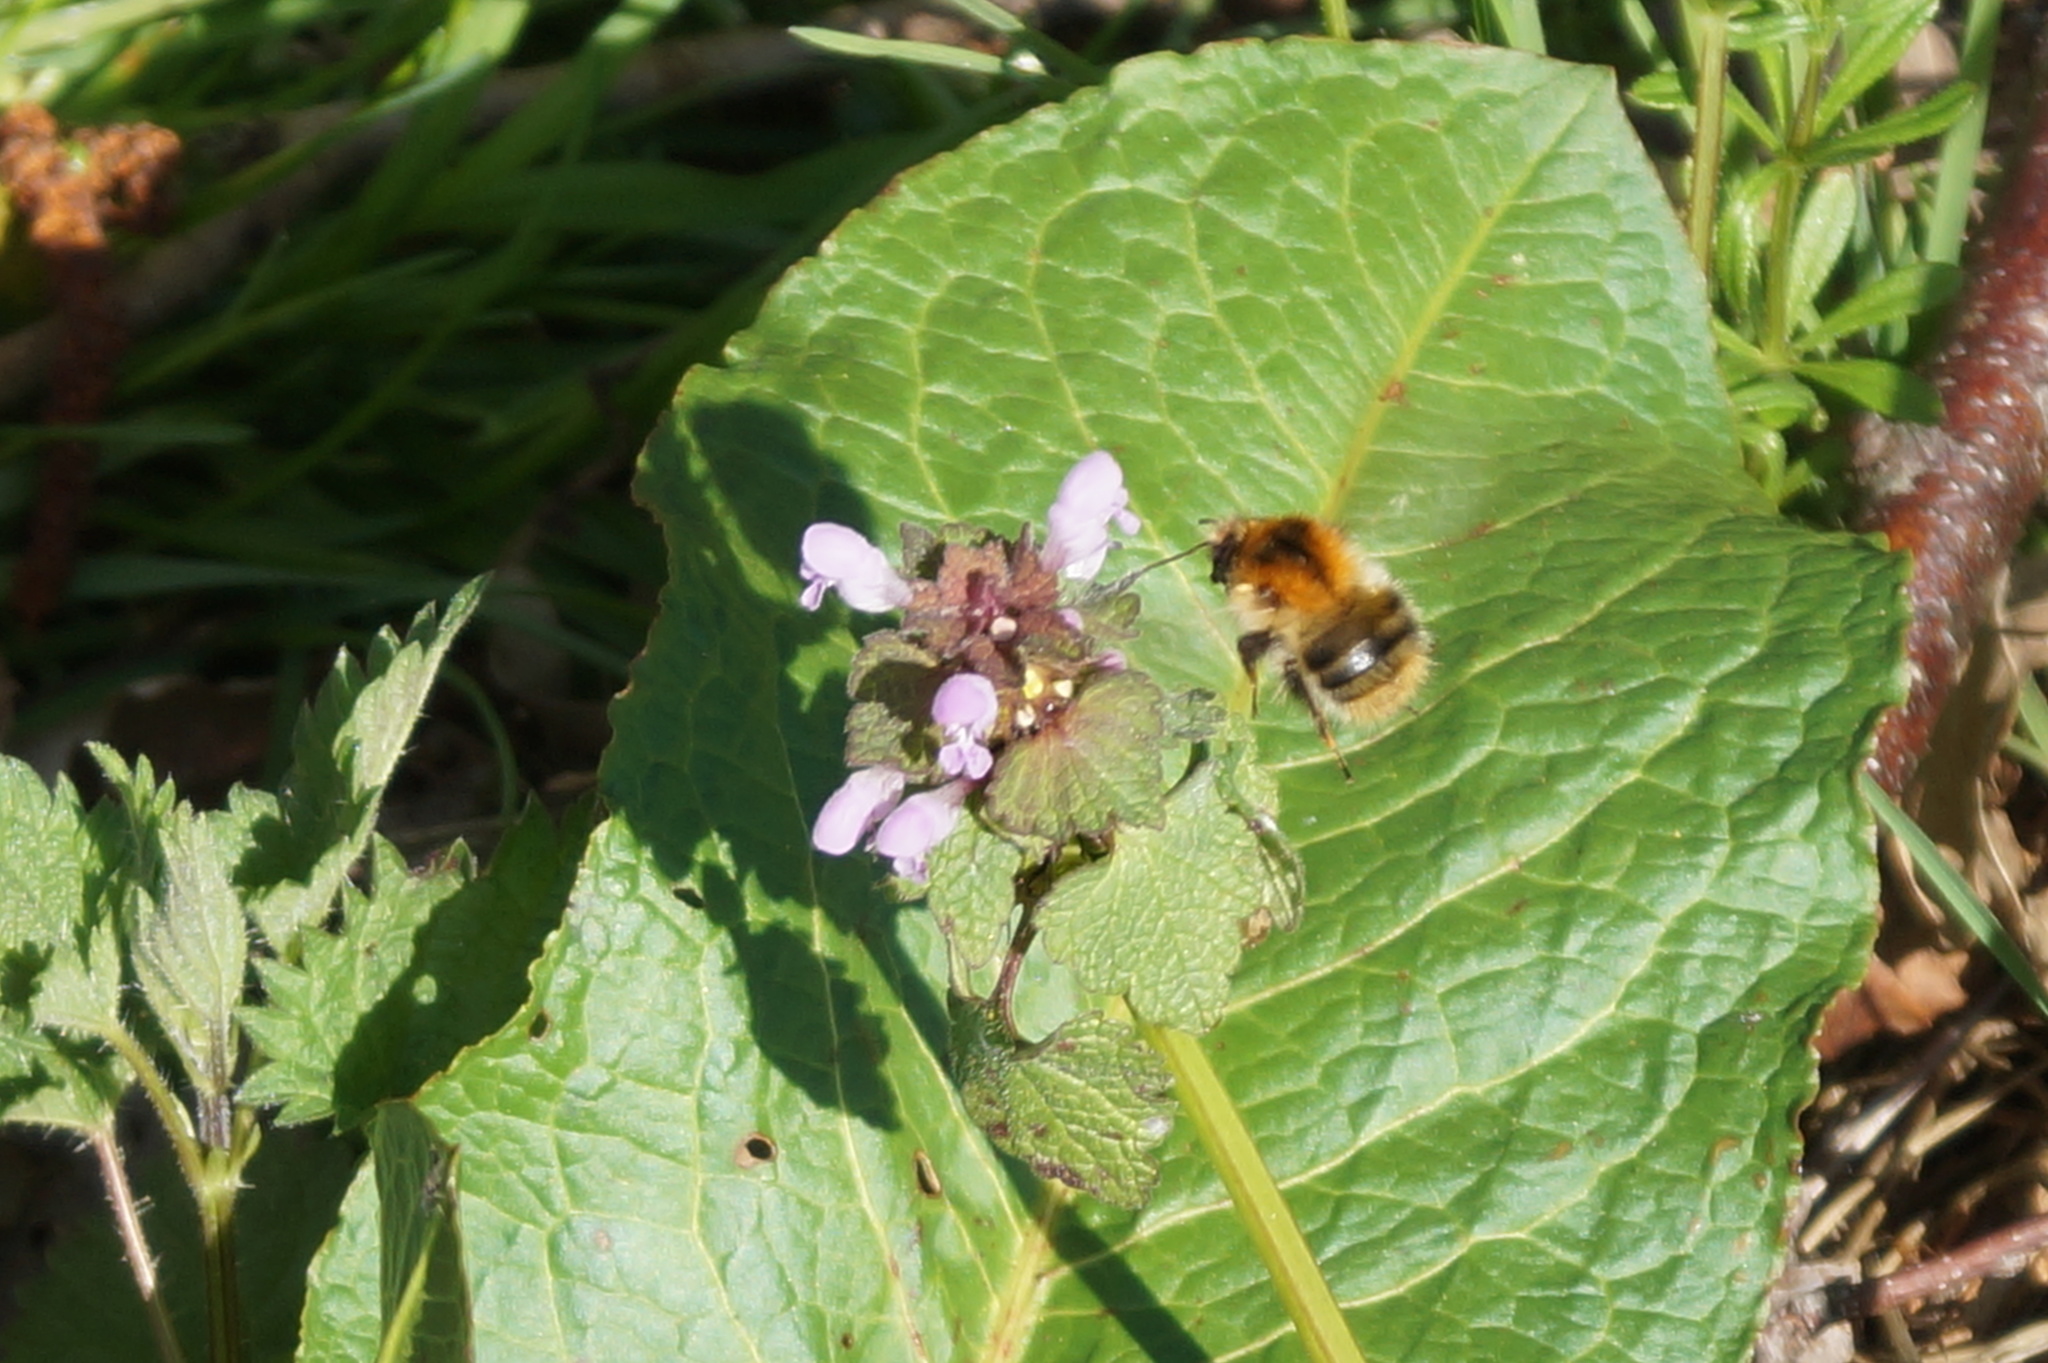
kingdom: Animalia
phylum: Arthropoda
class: Insecta
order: Hymenoptera
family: Apidae
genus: Bombus
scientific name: Bombus pascuorum
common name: Common carder bee
